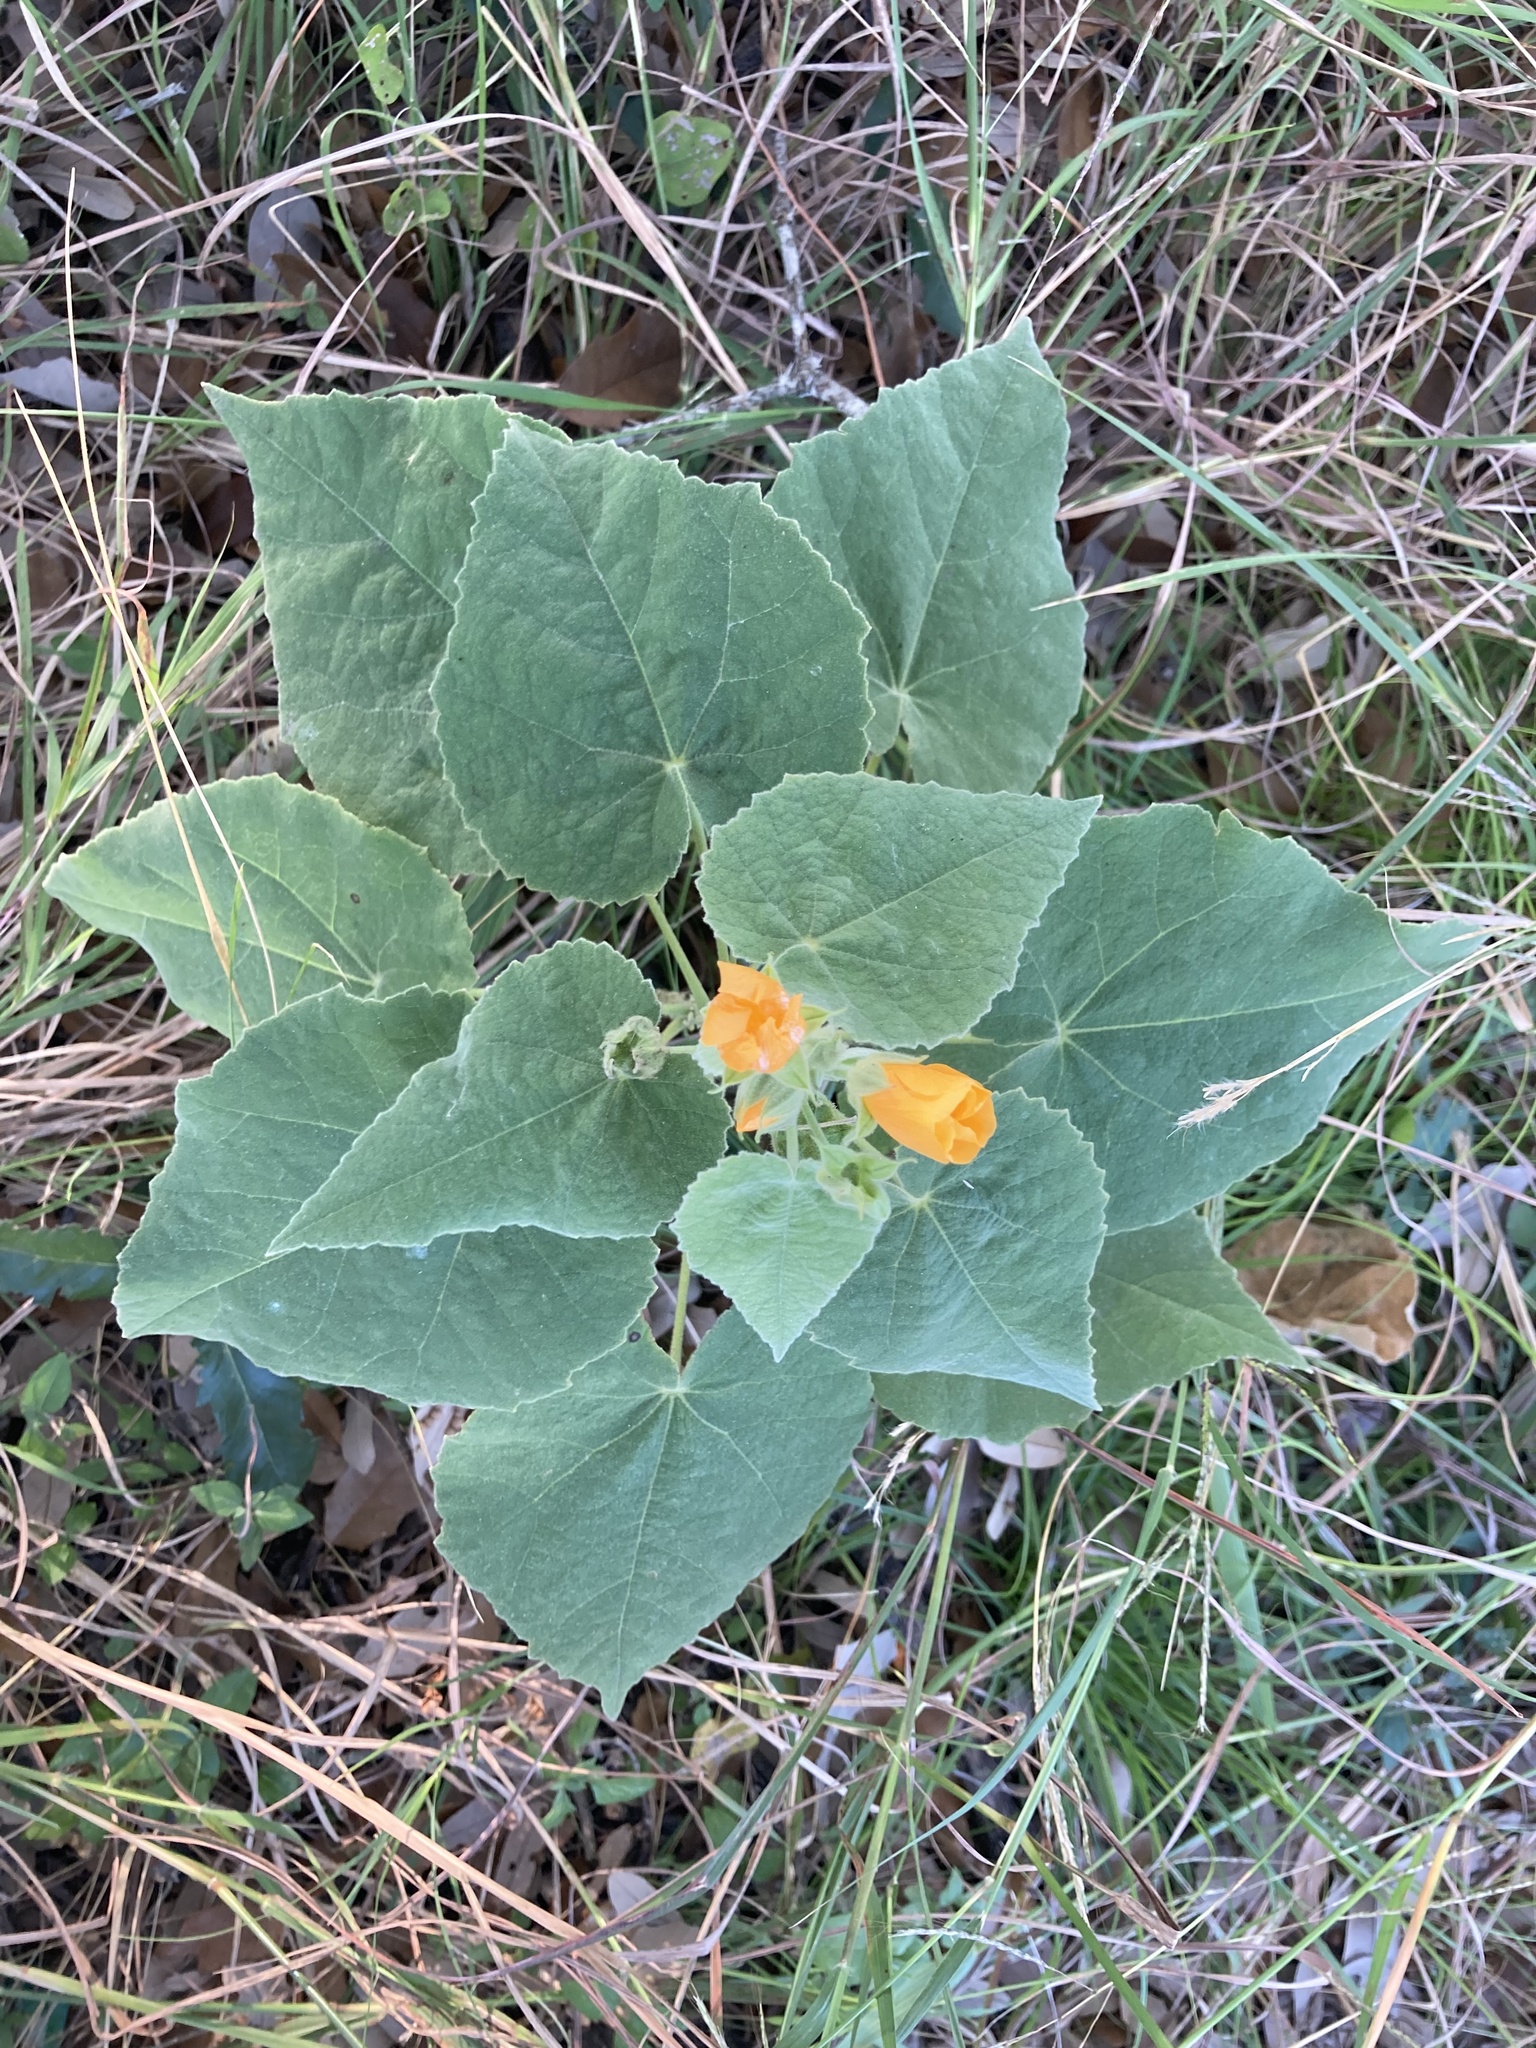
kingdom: Plantae
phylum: Tracheophyta
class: Magnoliopsida
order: Malvales
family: Malvaceae
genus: Allowissadula
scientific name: Allowissadula holosericea
